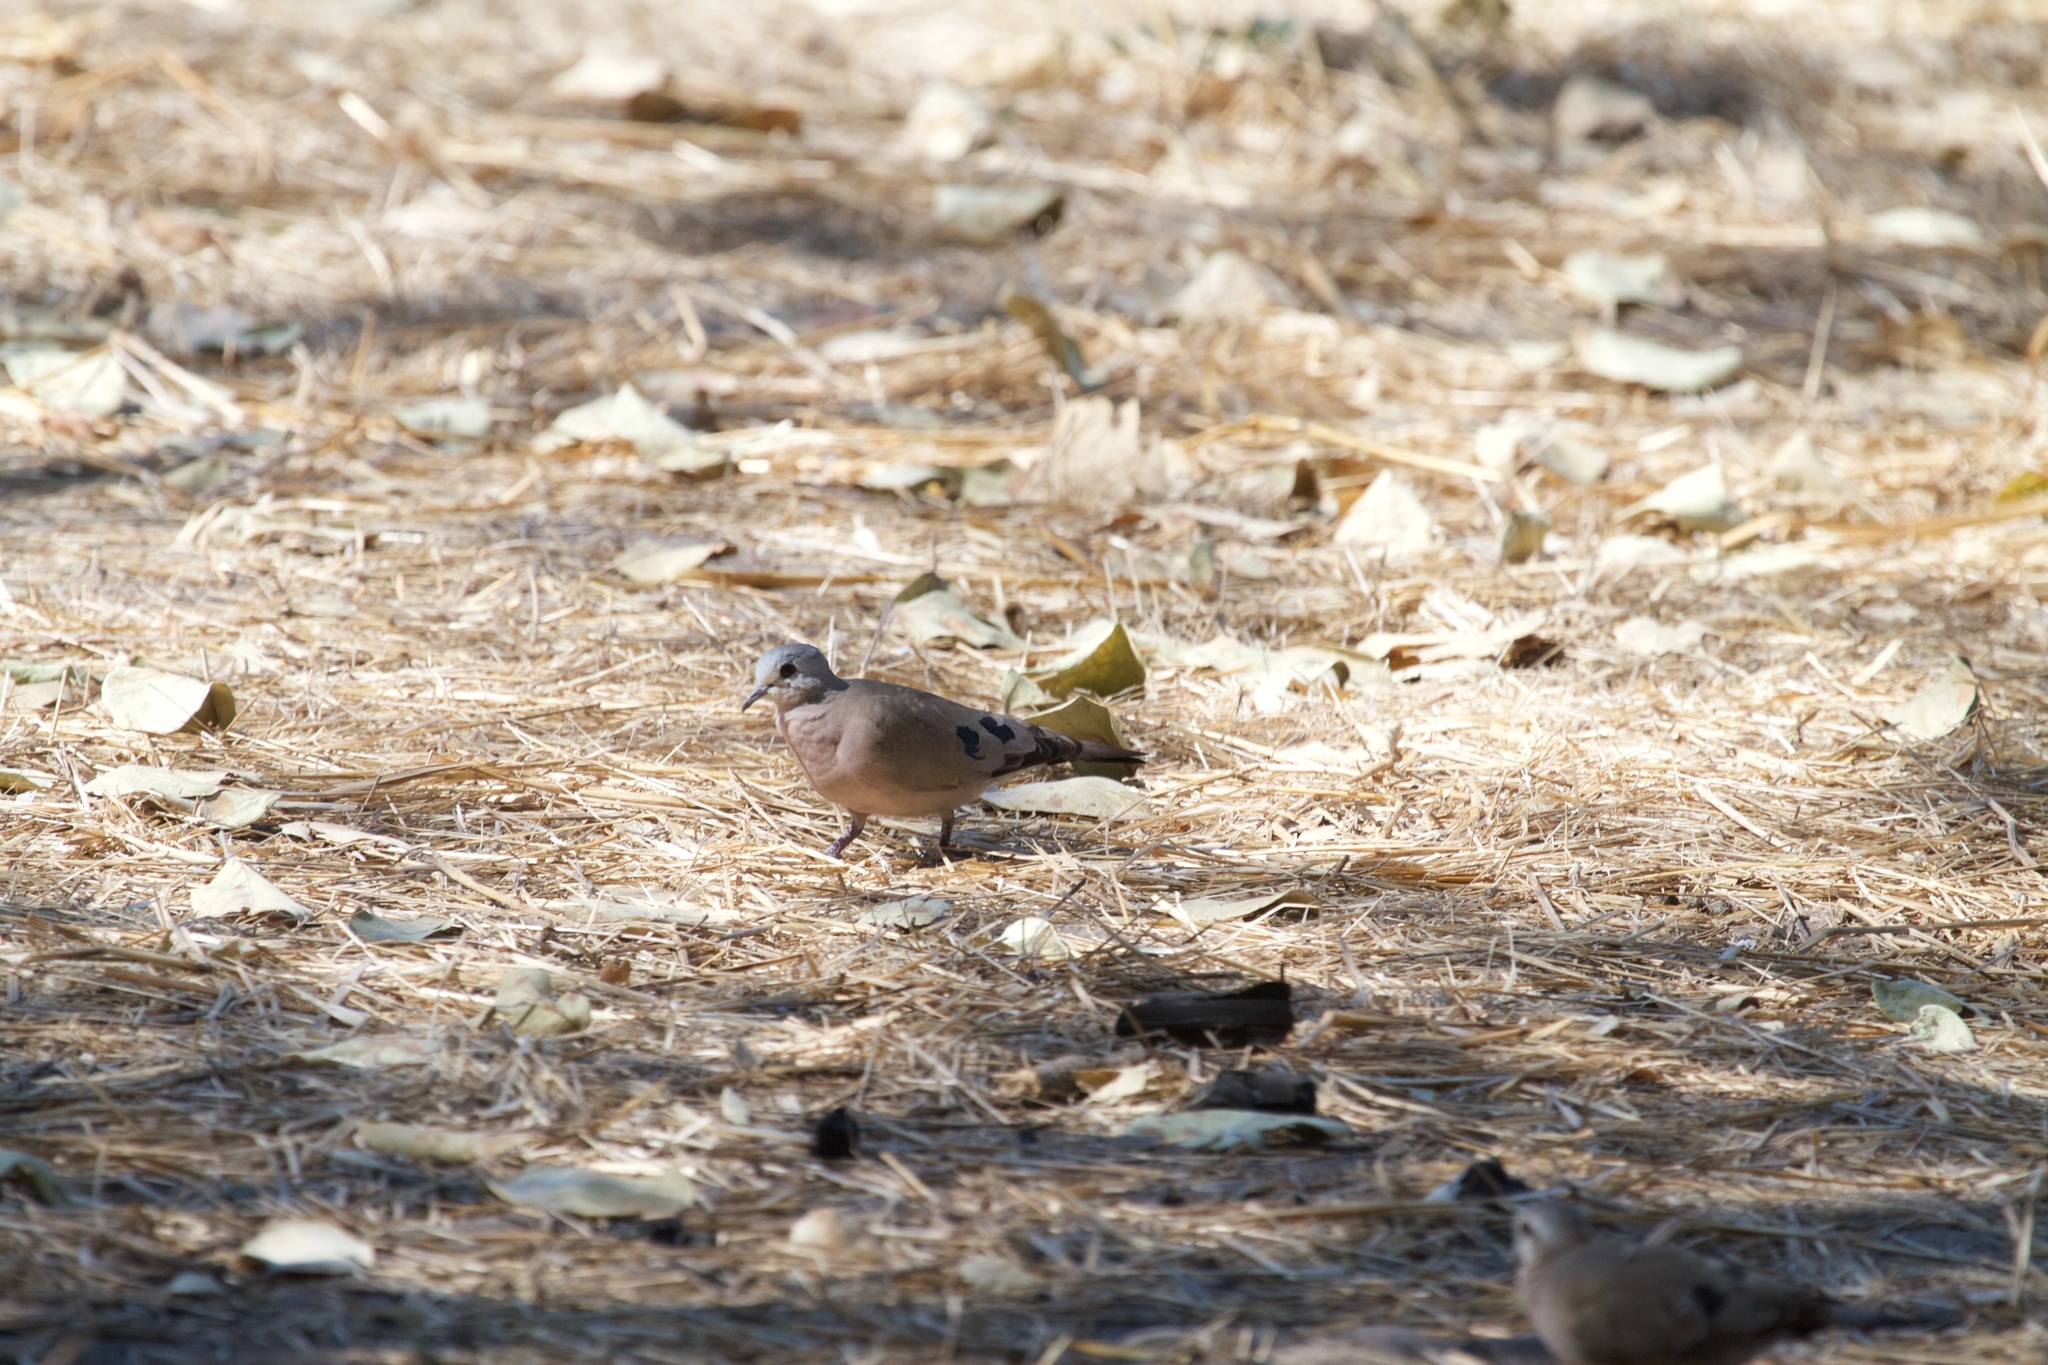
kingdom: Animalia
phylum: Chordata
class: Aves
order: Columbiformes
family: Columbidae
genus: Turtur
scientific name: Turtur chalcospilos
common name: Emerald-spotted wood dove
